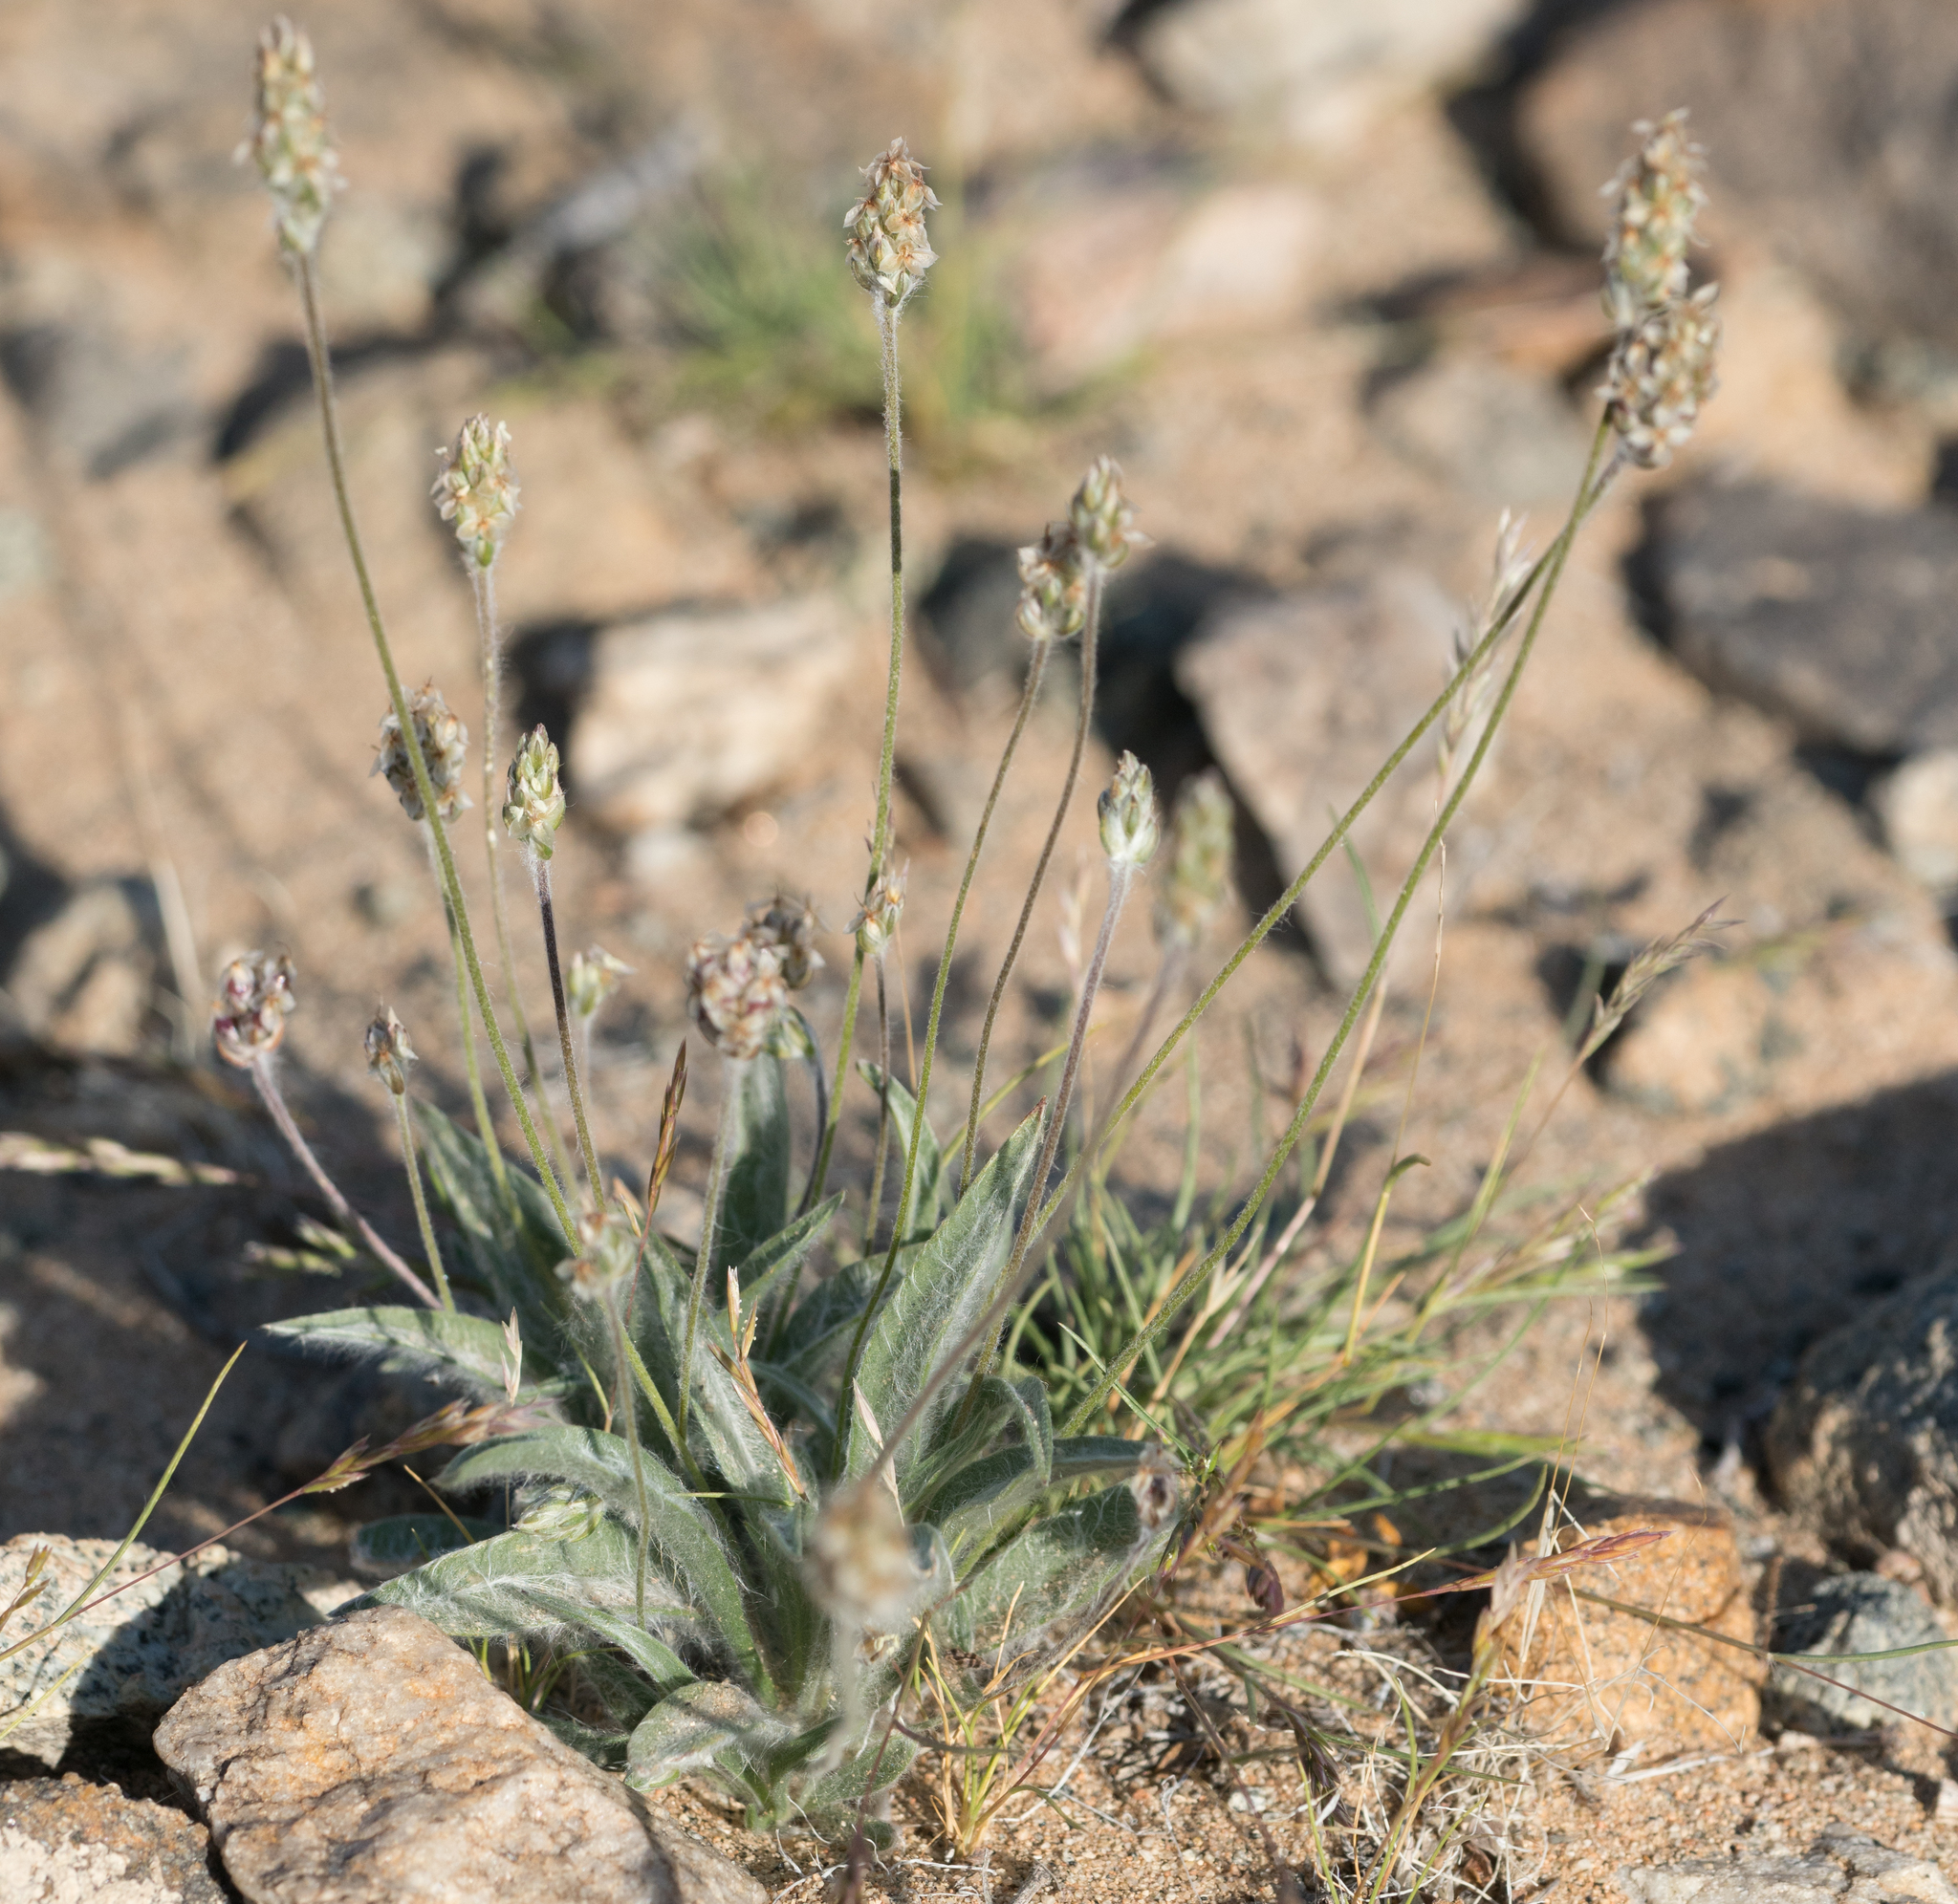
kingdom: Plantae
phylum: Tracheophyta
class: Magnoliopsida
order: Lamiales
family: Plantaginaceae
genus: Plantago
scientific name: Plantago ovata
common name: Blond plantain
